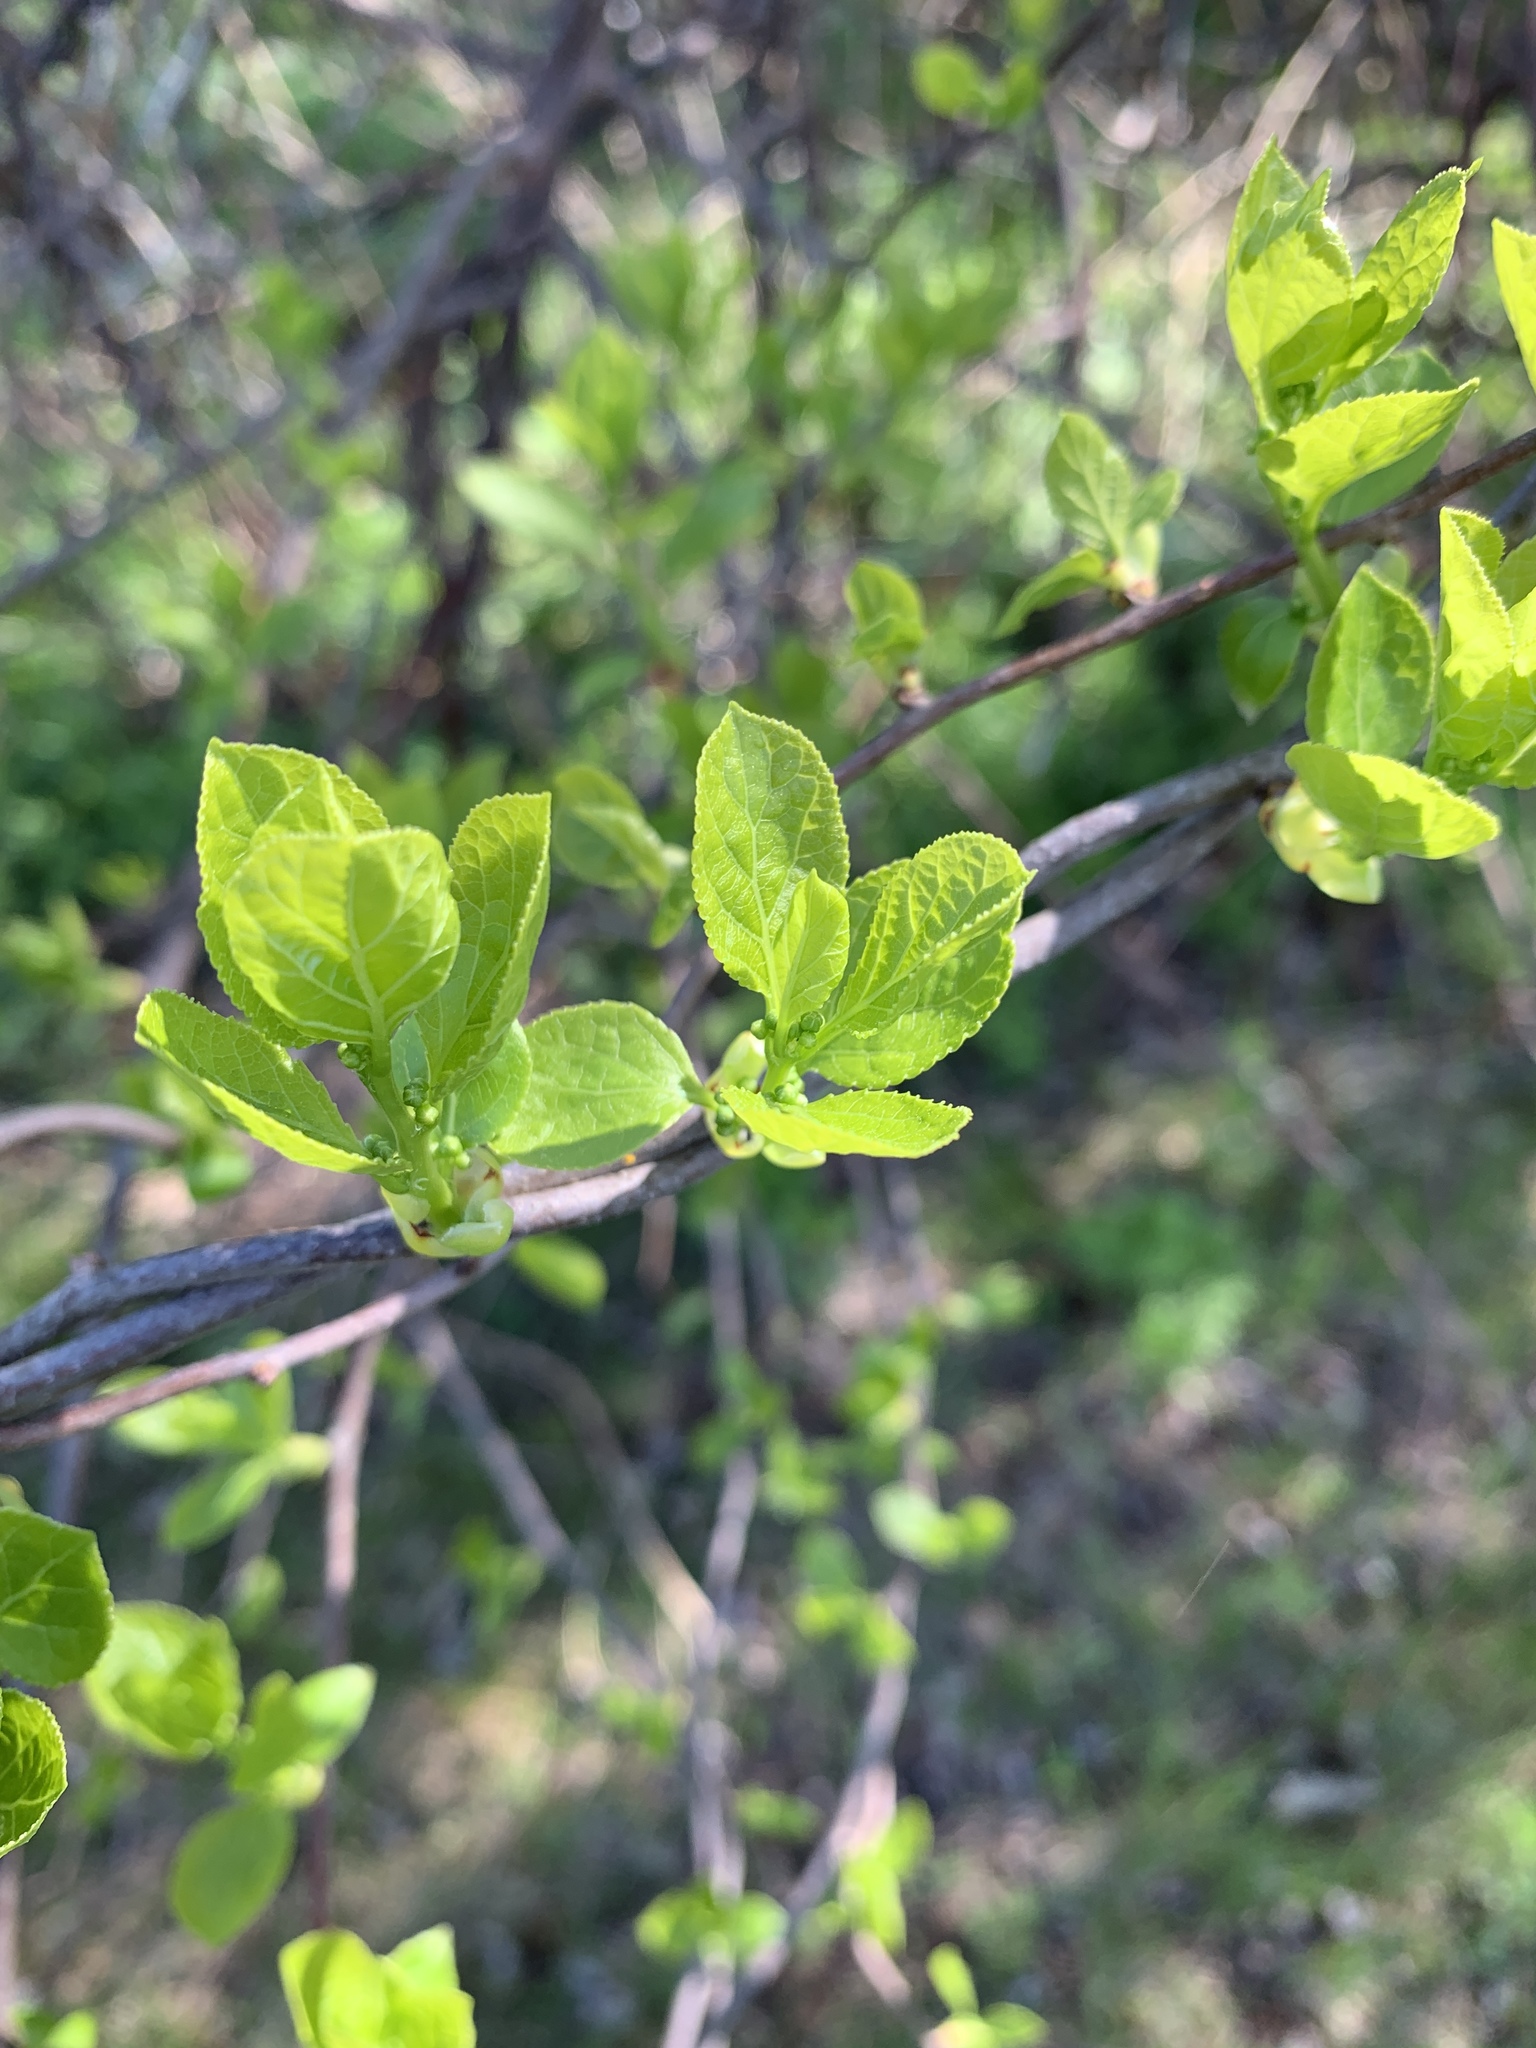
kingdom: Plantae
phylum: Tracheophyta
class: Magnoliopsida
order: Celastrales
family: Celastraceae
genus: Celastrus
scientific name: Celastrus orbiculatus
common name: Oriental bittersweet
